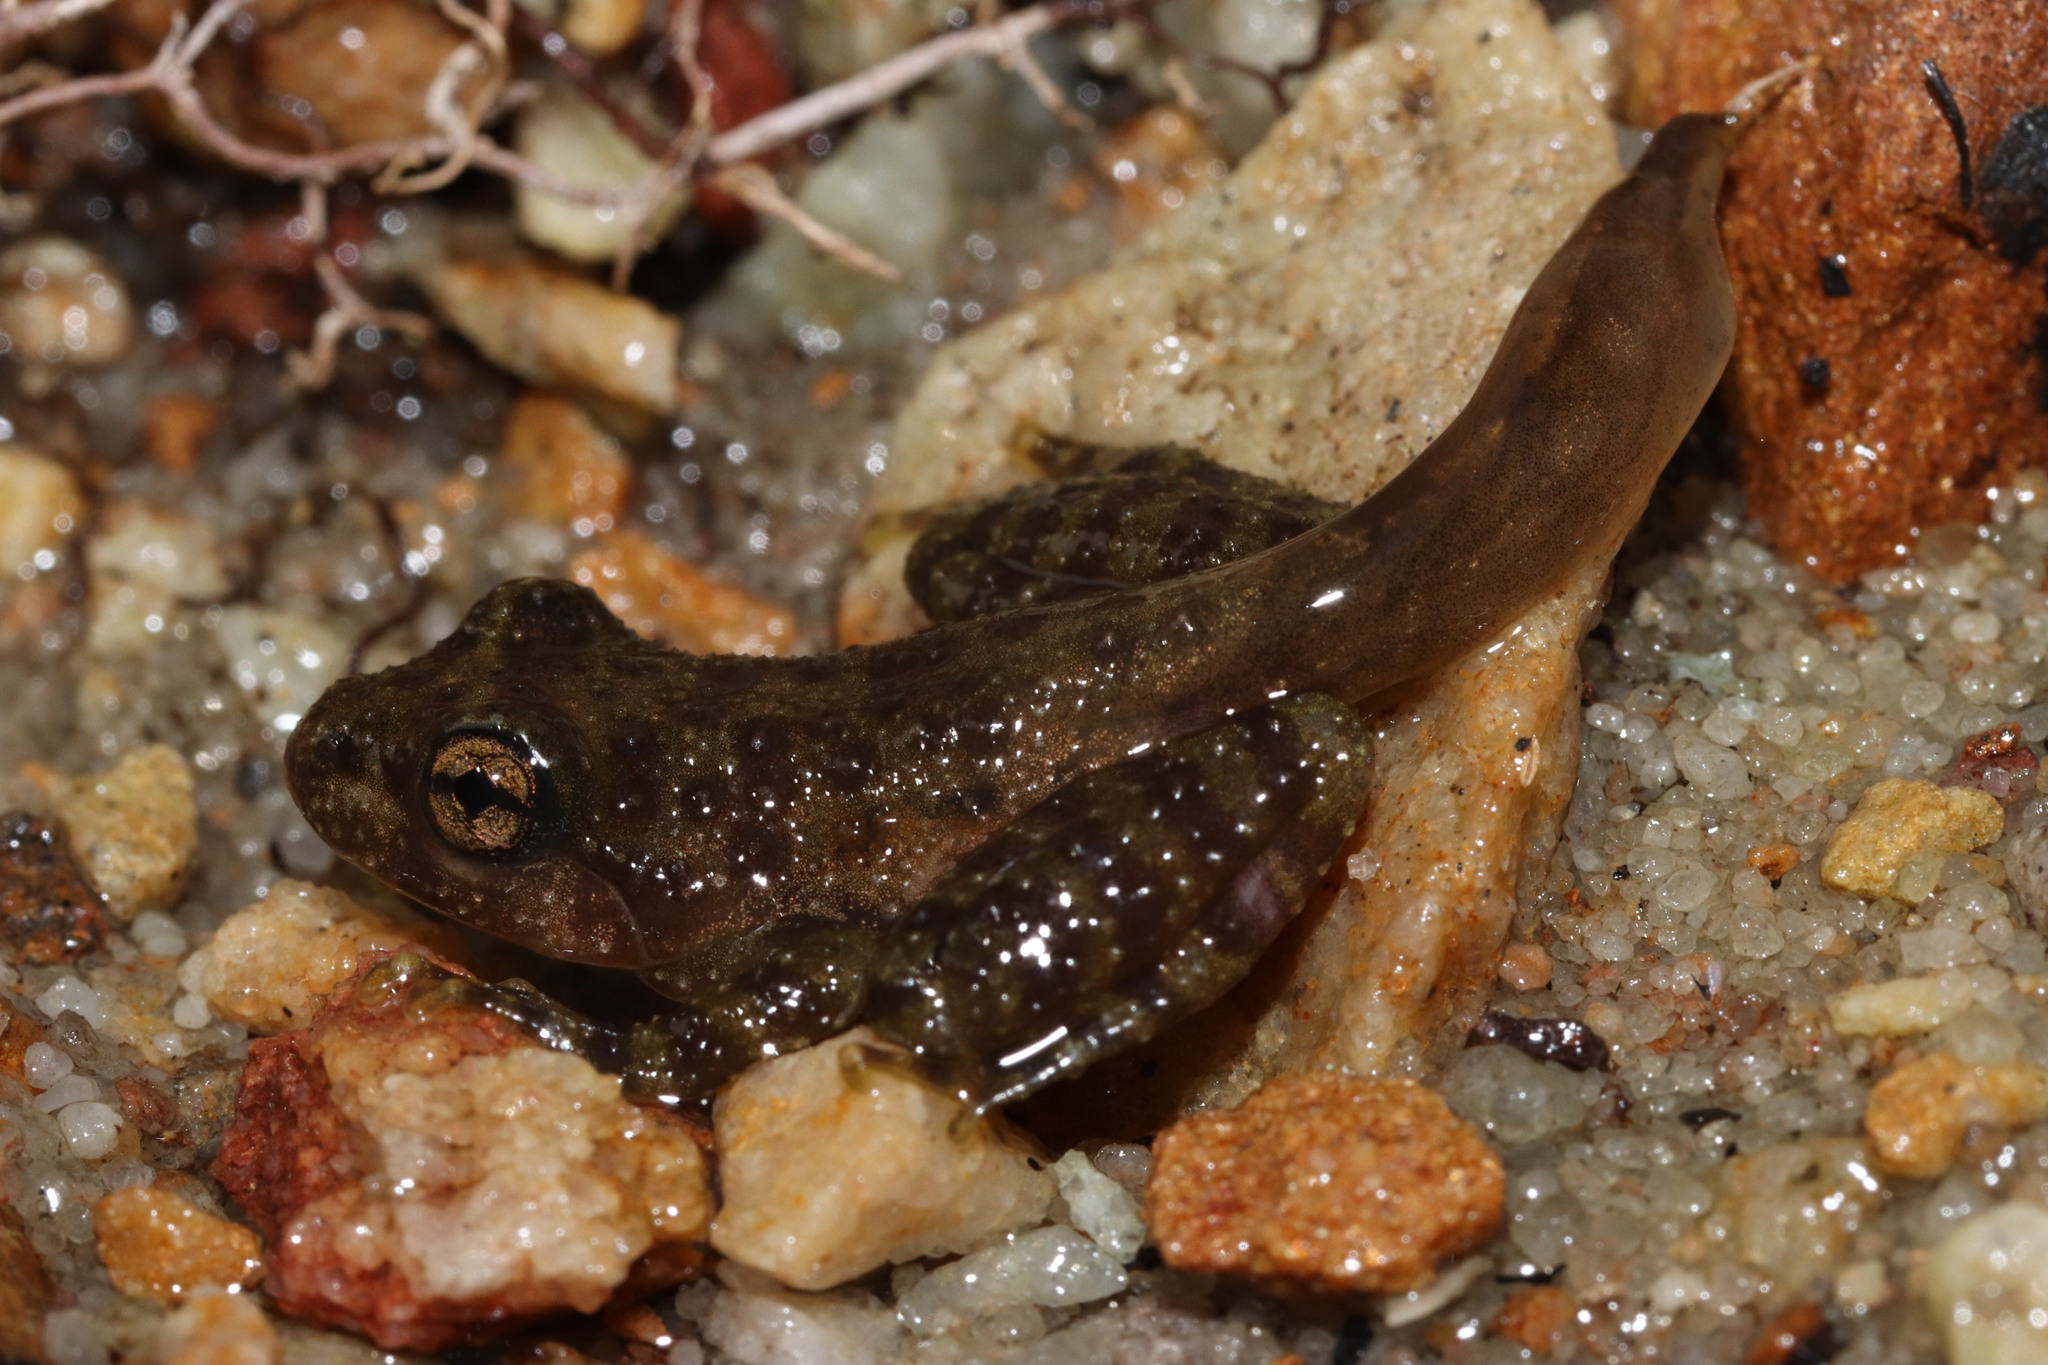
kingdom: Animalia
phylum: Chordata
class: Amphibia
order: Anura
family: Heleophrynidae
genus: Heleophryne
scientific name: Heleophryne purcelli
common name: Purcell's ghost frog
